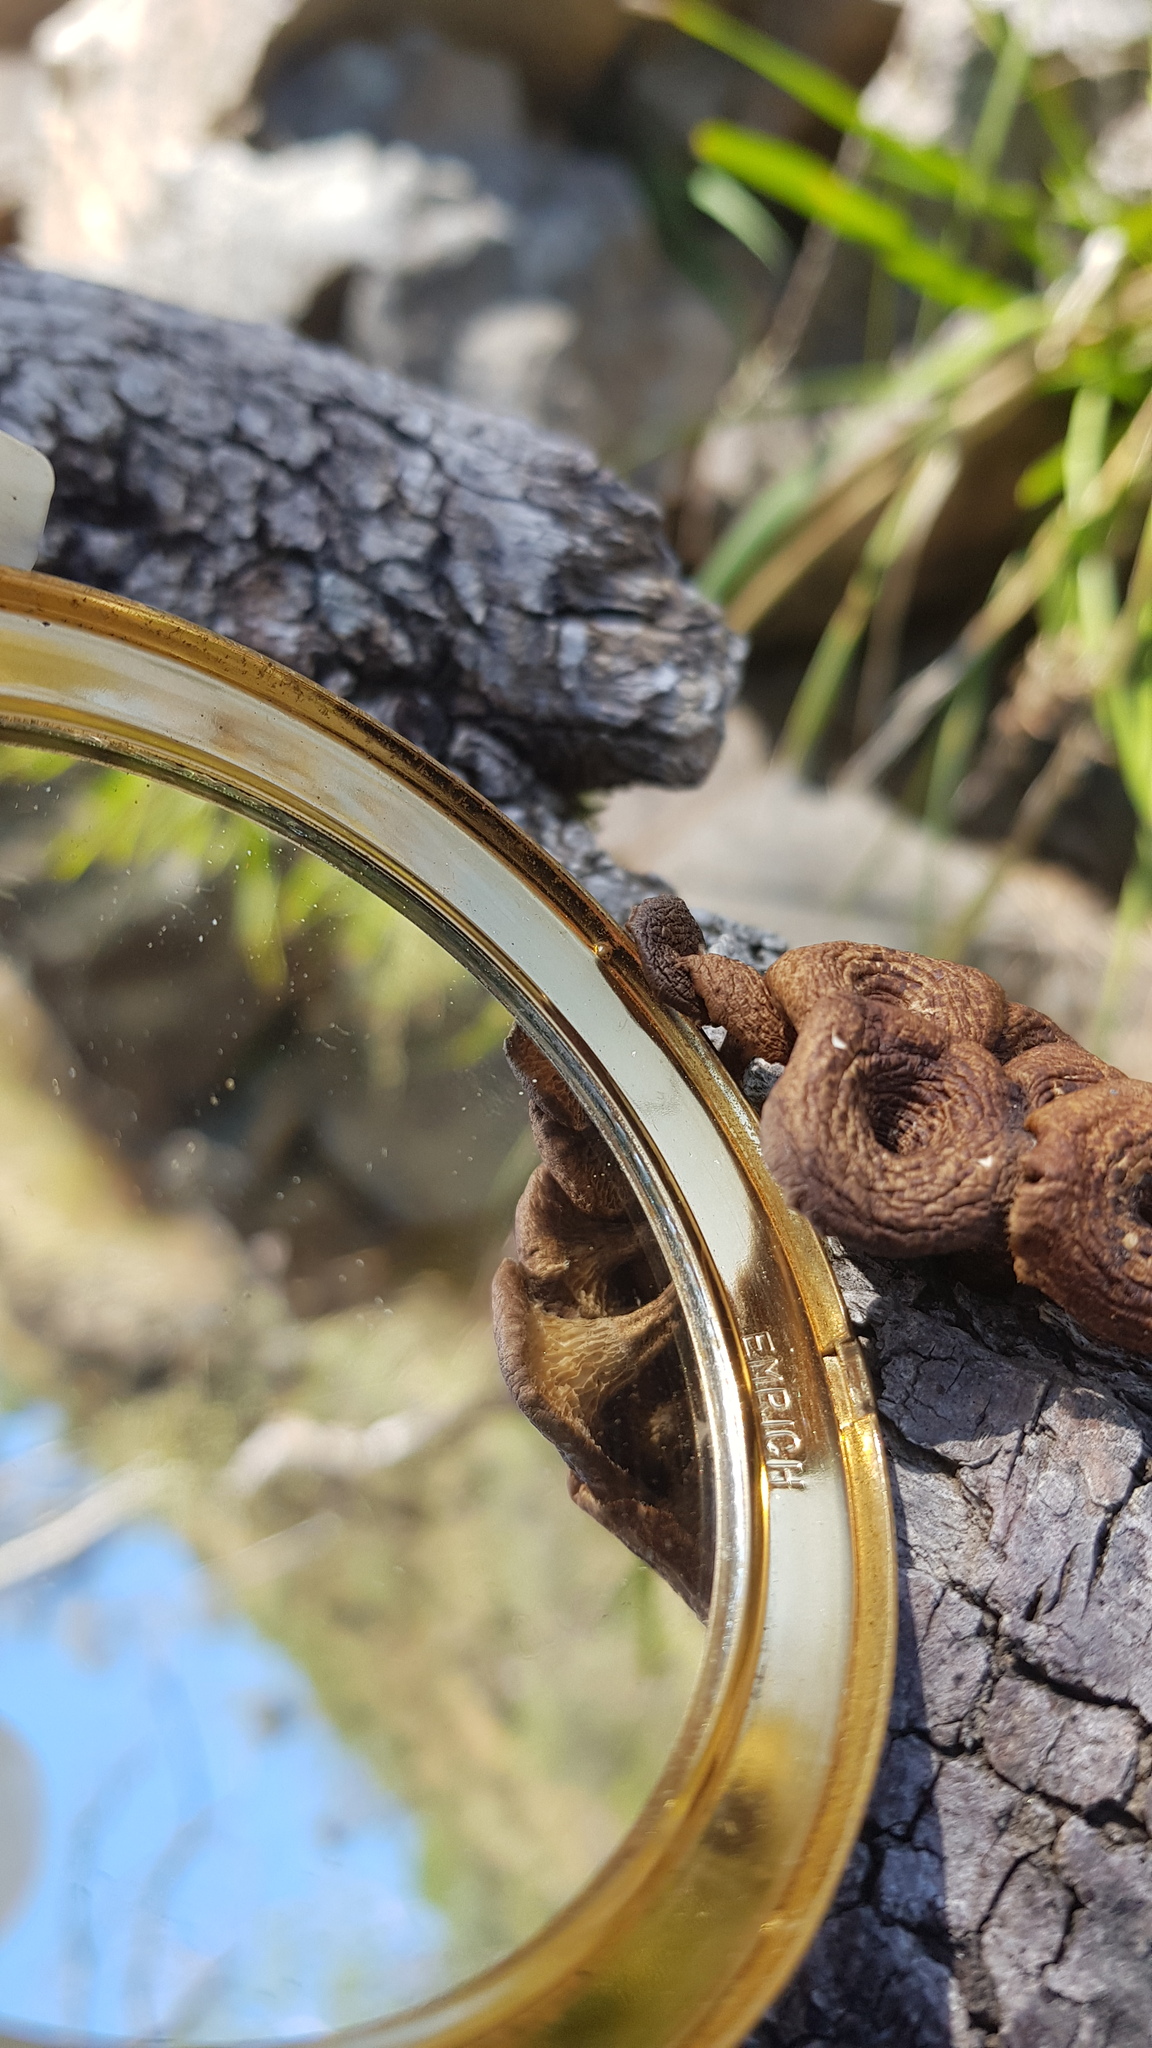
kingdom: Fungi
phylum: Basidiomycota
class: Agaricomycetes
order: Polyporales
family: Polyporaceae
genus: Lentinus
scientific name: Lentinus arcularius
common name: Spring polypore
